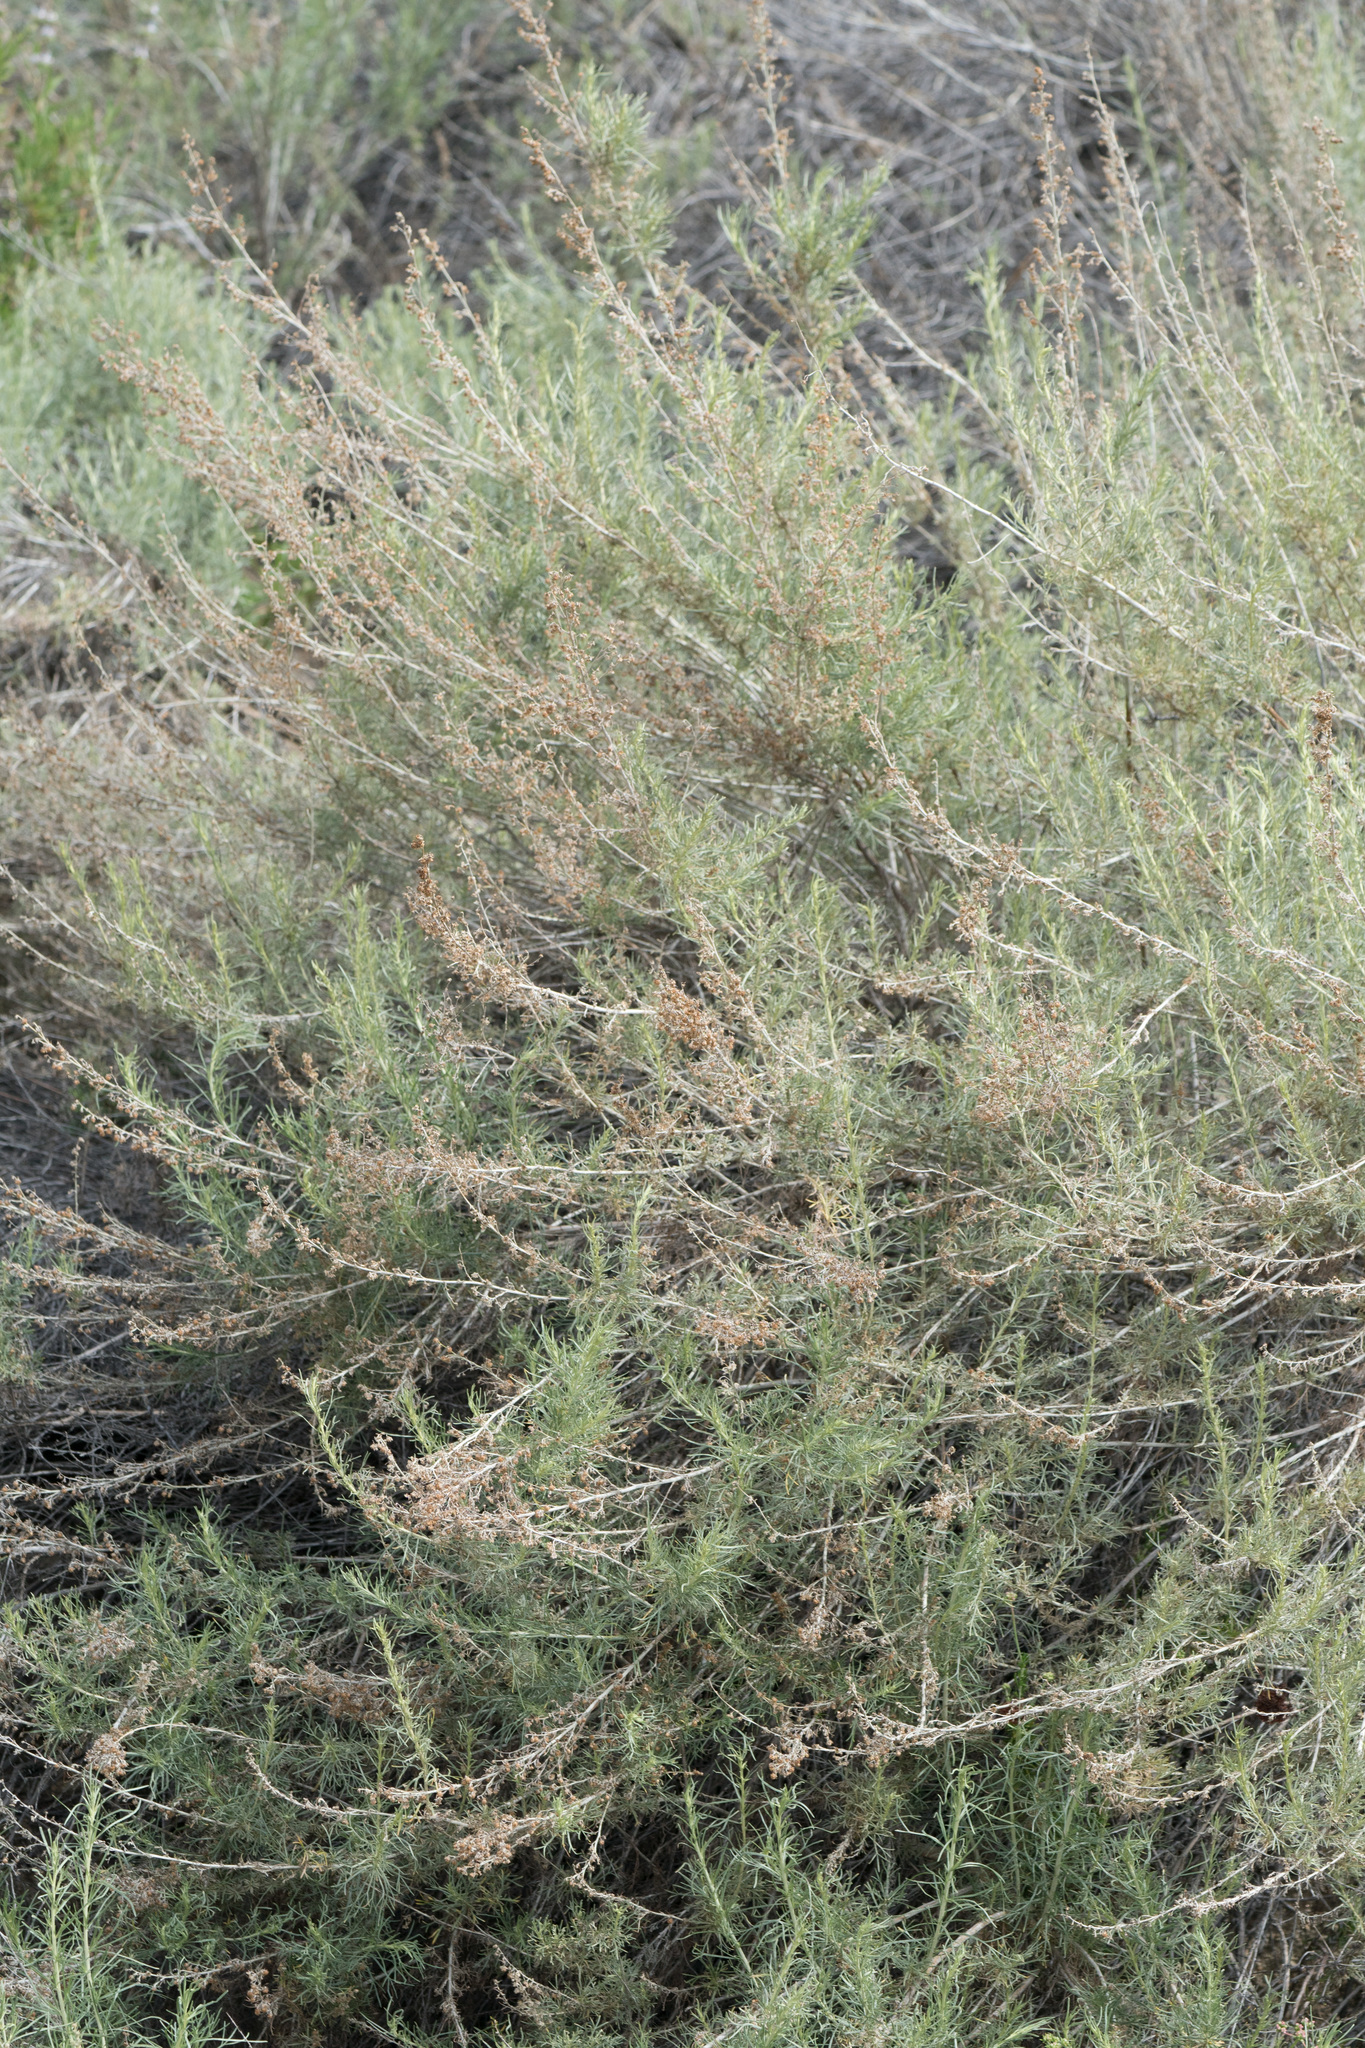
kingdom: Plantae
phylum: Tracheophyta
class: Magnoliopsida
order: Asterales
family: Asteraceae
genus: Artemisia
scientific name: Artemisia californica
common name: California sagebrush
